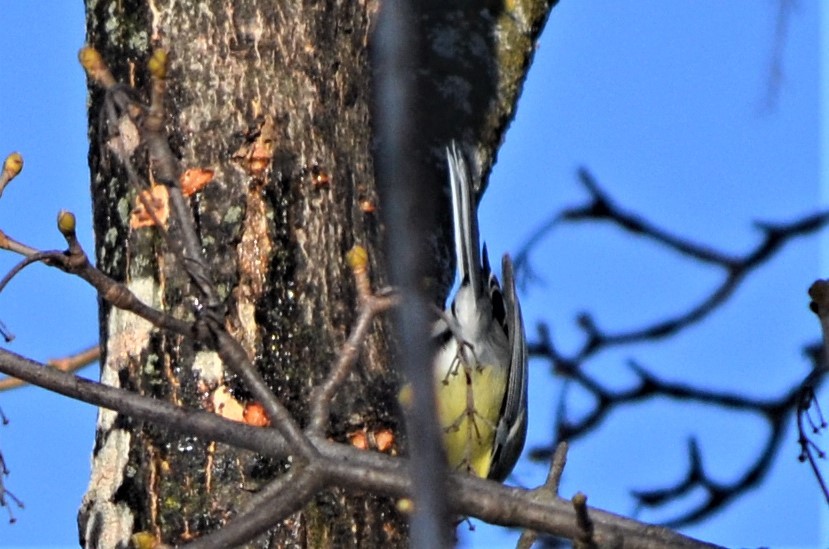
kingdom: Animalia
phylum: Chordata
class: Aves
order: Passeriformes
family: Paridae
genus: Parus
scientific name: Parus major
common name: Great tit
